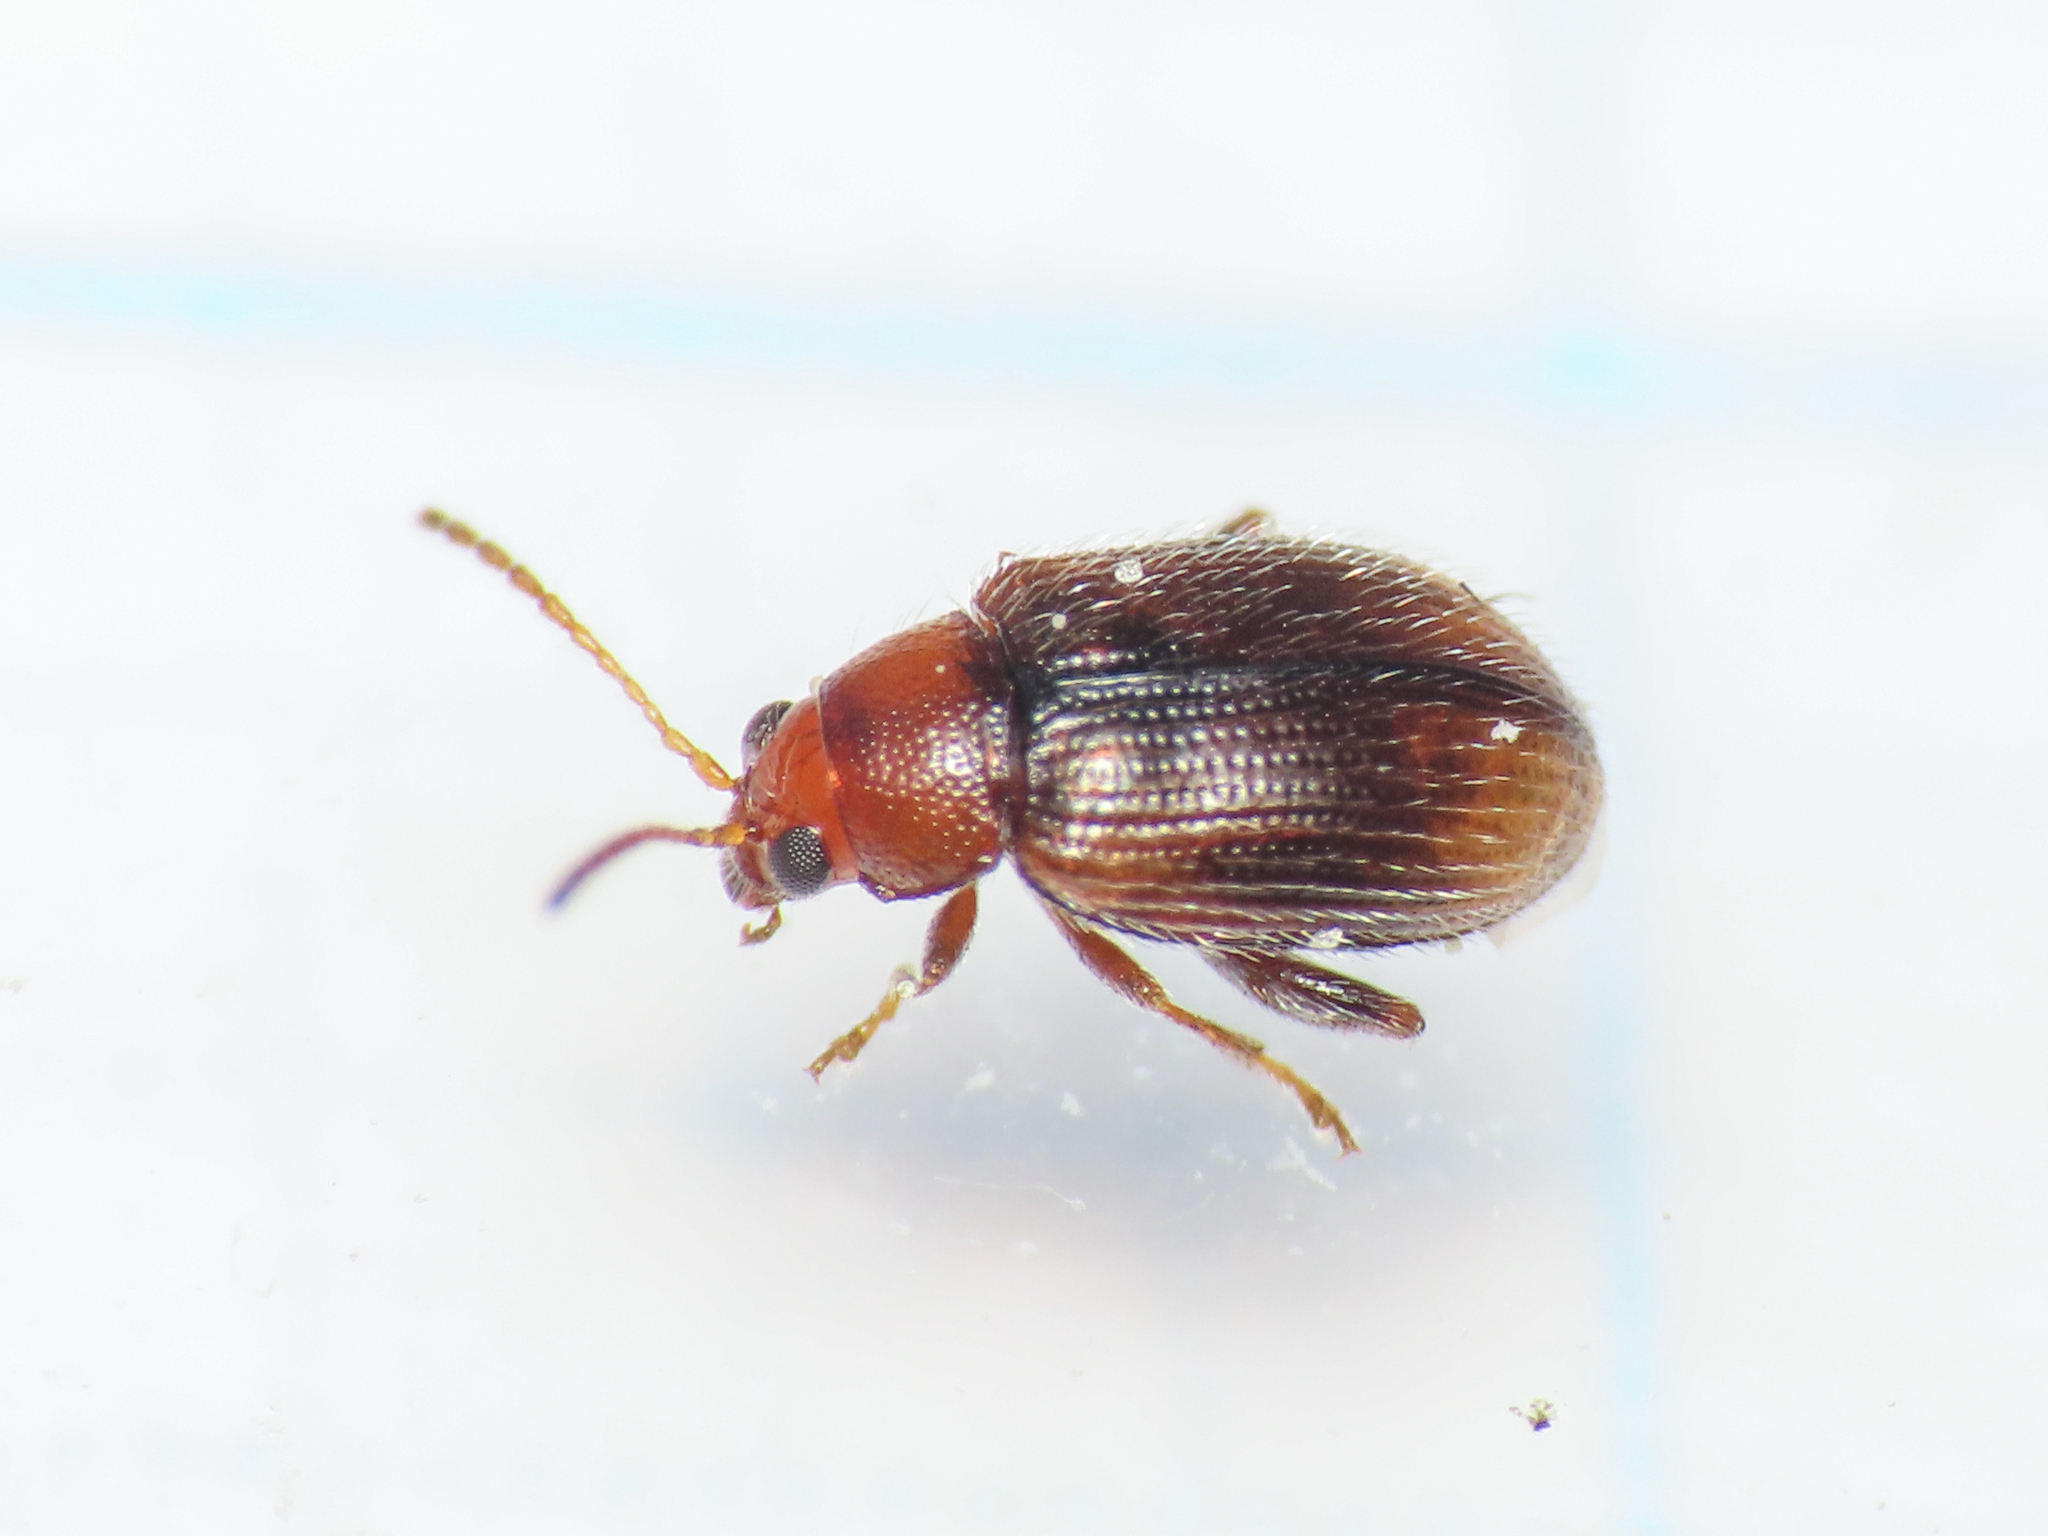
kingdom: Animalia
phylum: Arthropoda
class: Insecta
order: Coleoptera
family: Chrysomelidae
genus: Epitrix
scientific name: Epitrix hirtipennis
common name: Tobacco flea beetle
